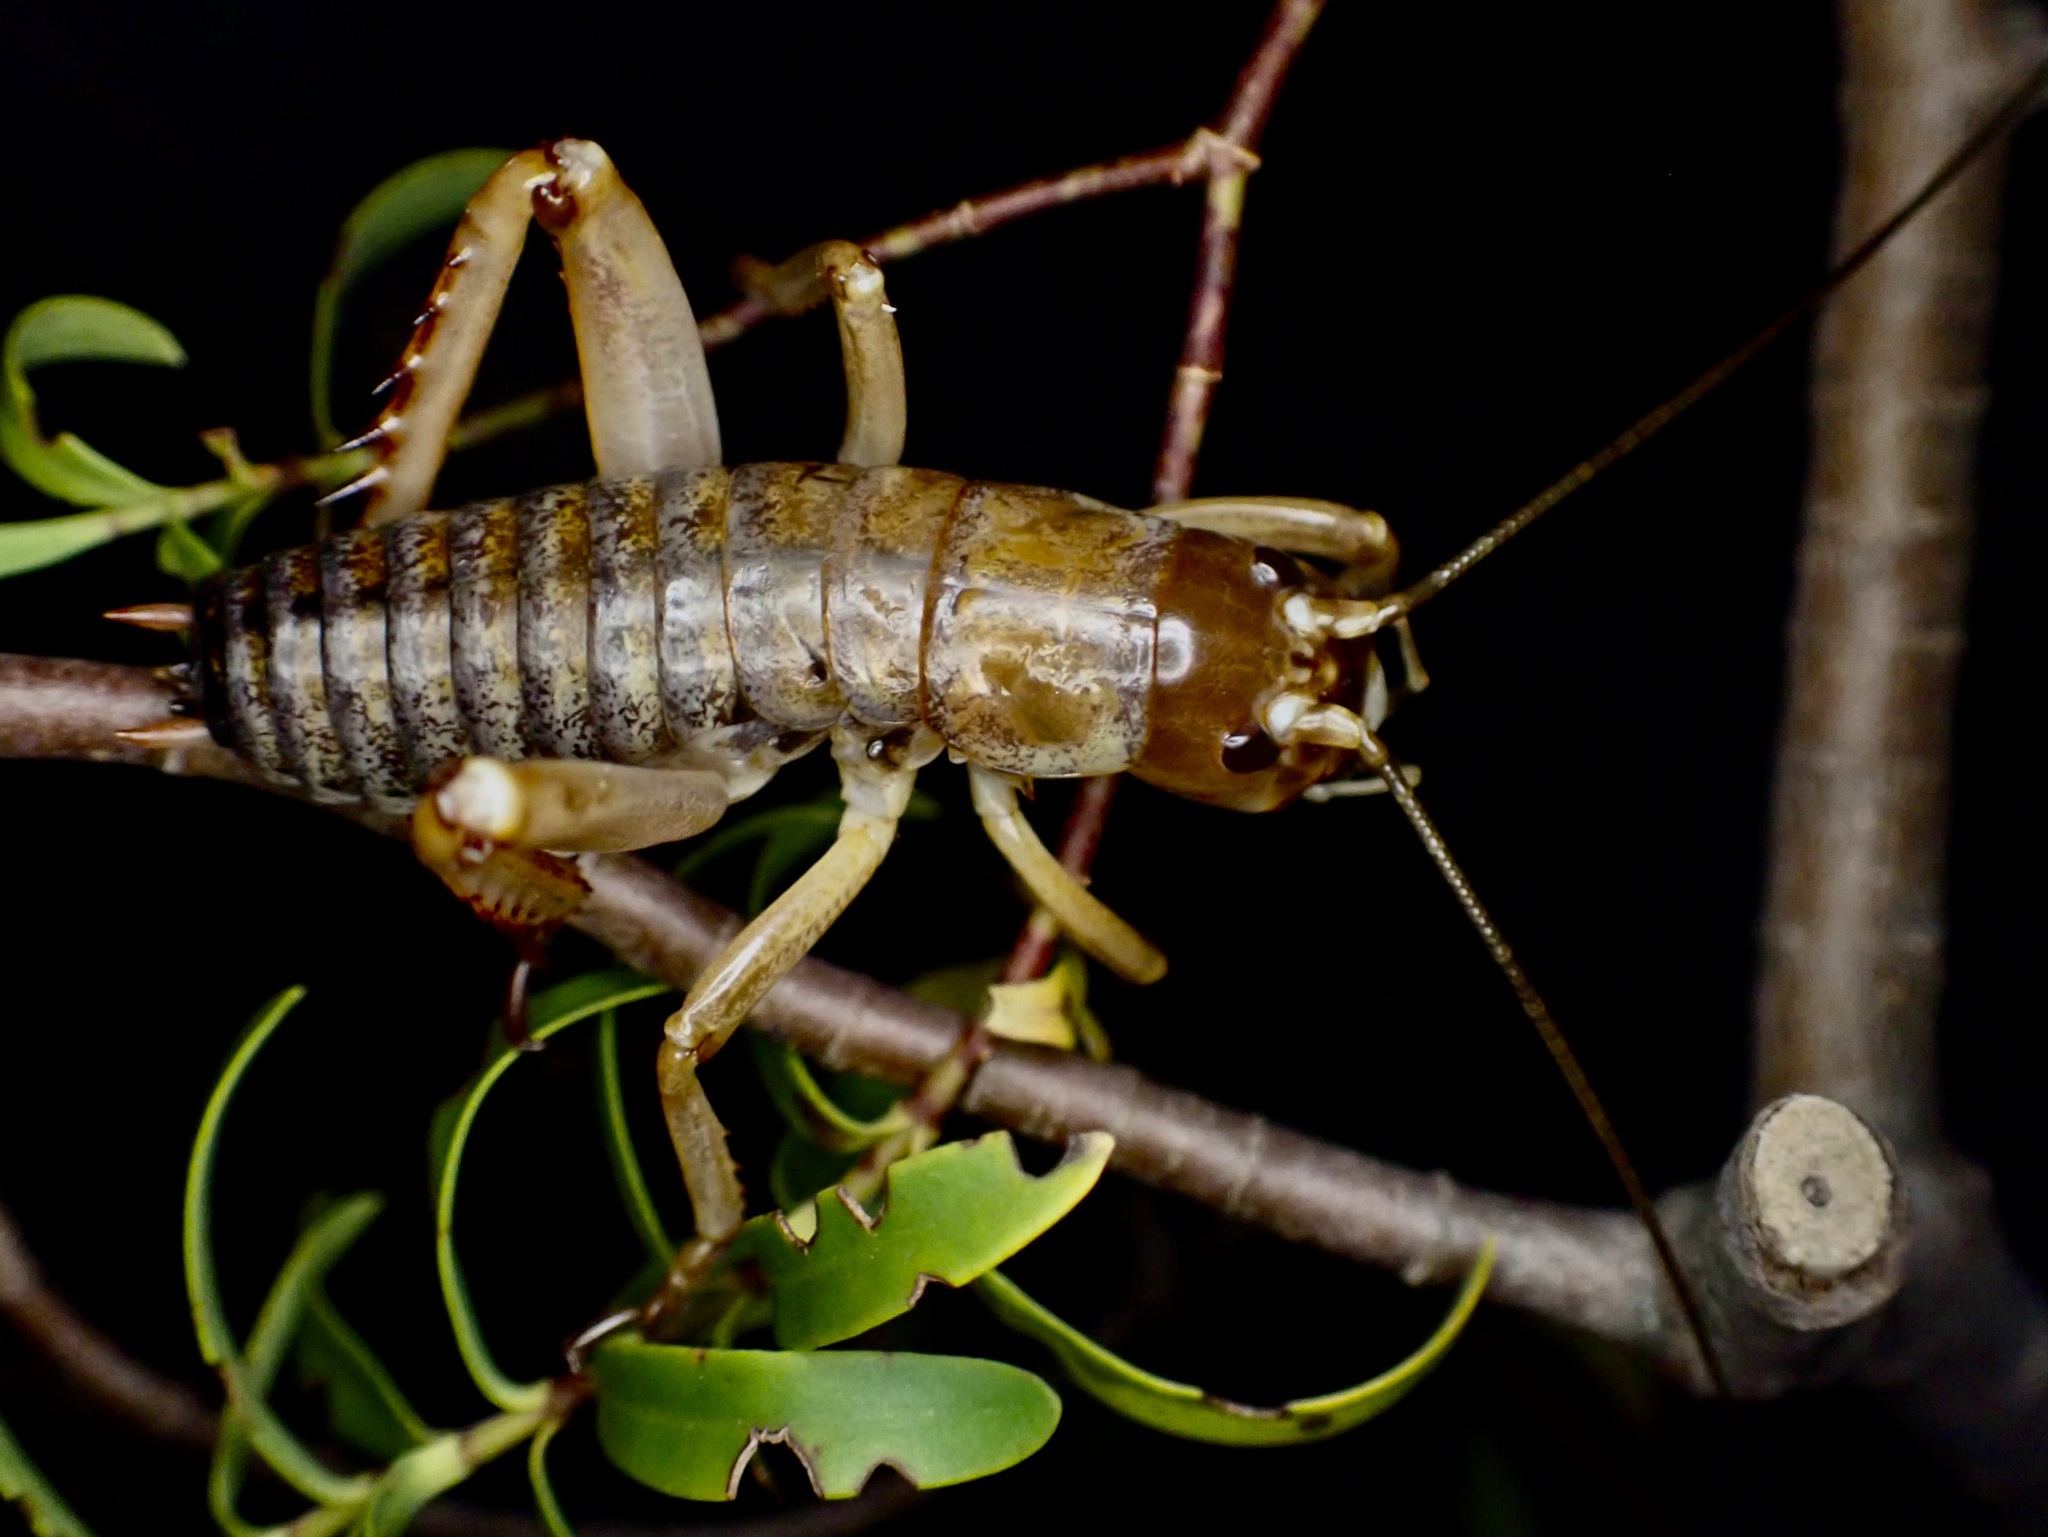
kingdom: Animalia
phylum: Arthropoda
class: Insecta
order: Orthoptera
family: Anostostomatidae
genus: Hemideina
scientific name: Hemideina ricta
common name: Banks peninsula tree weta
